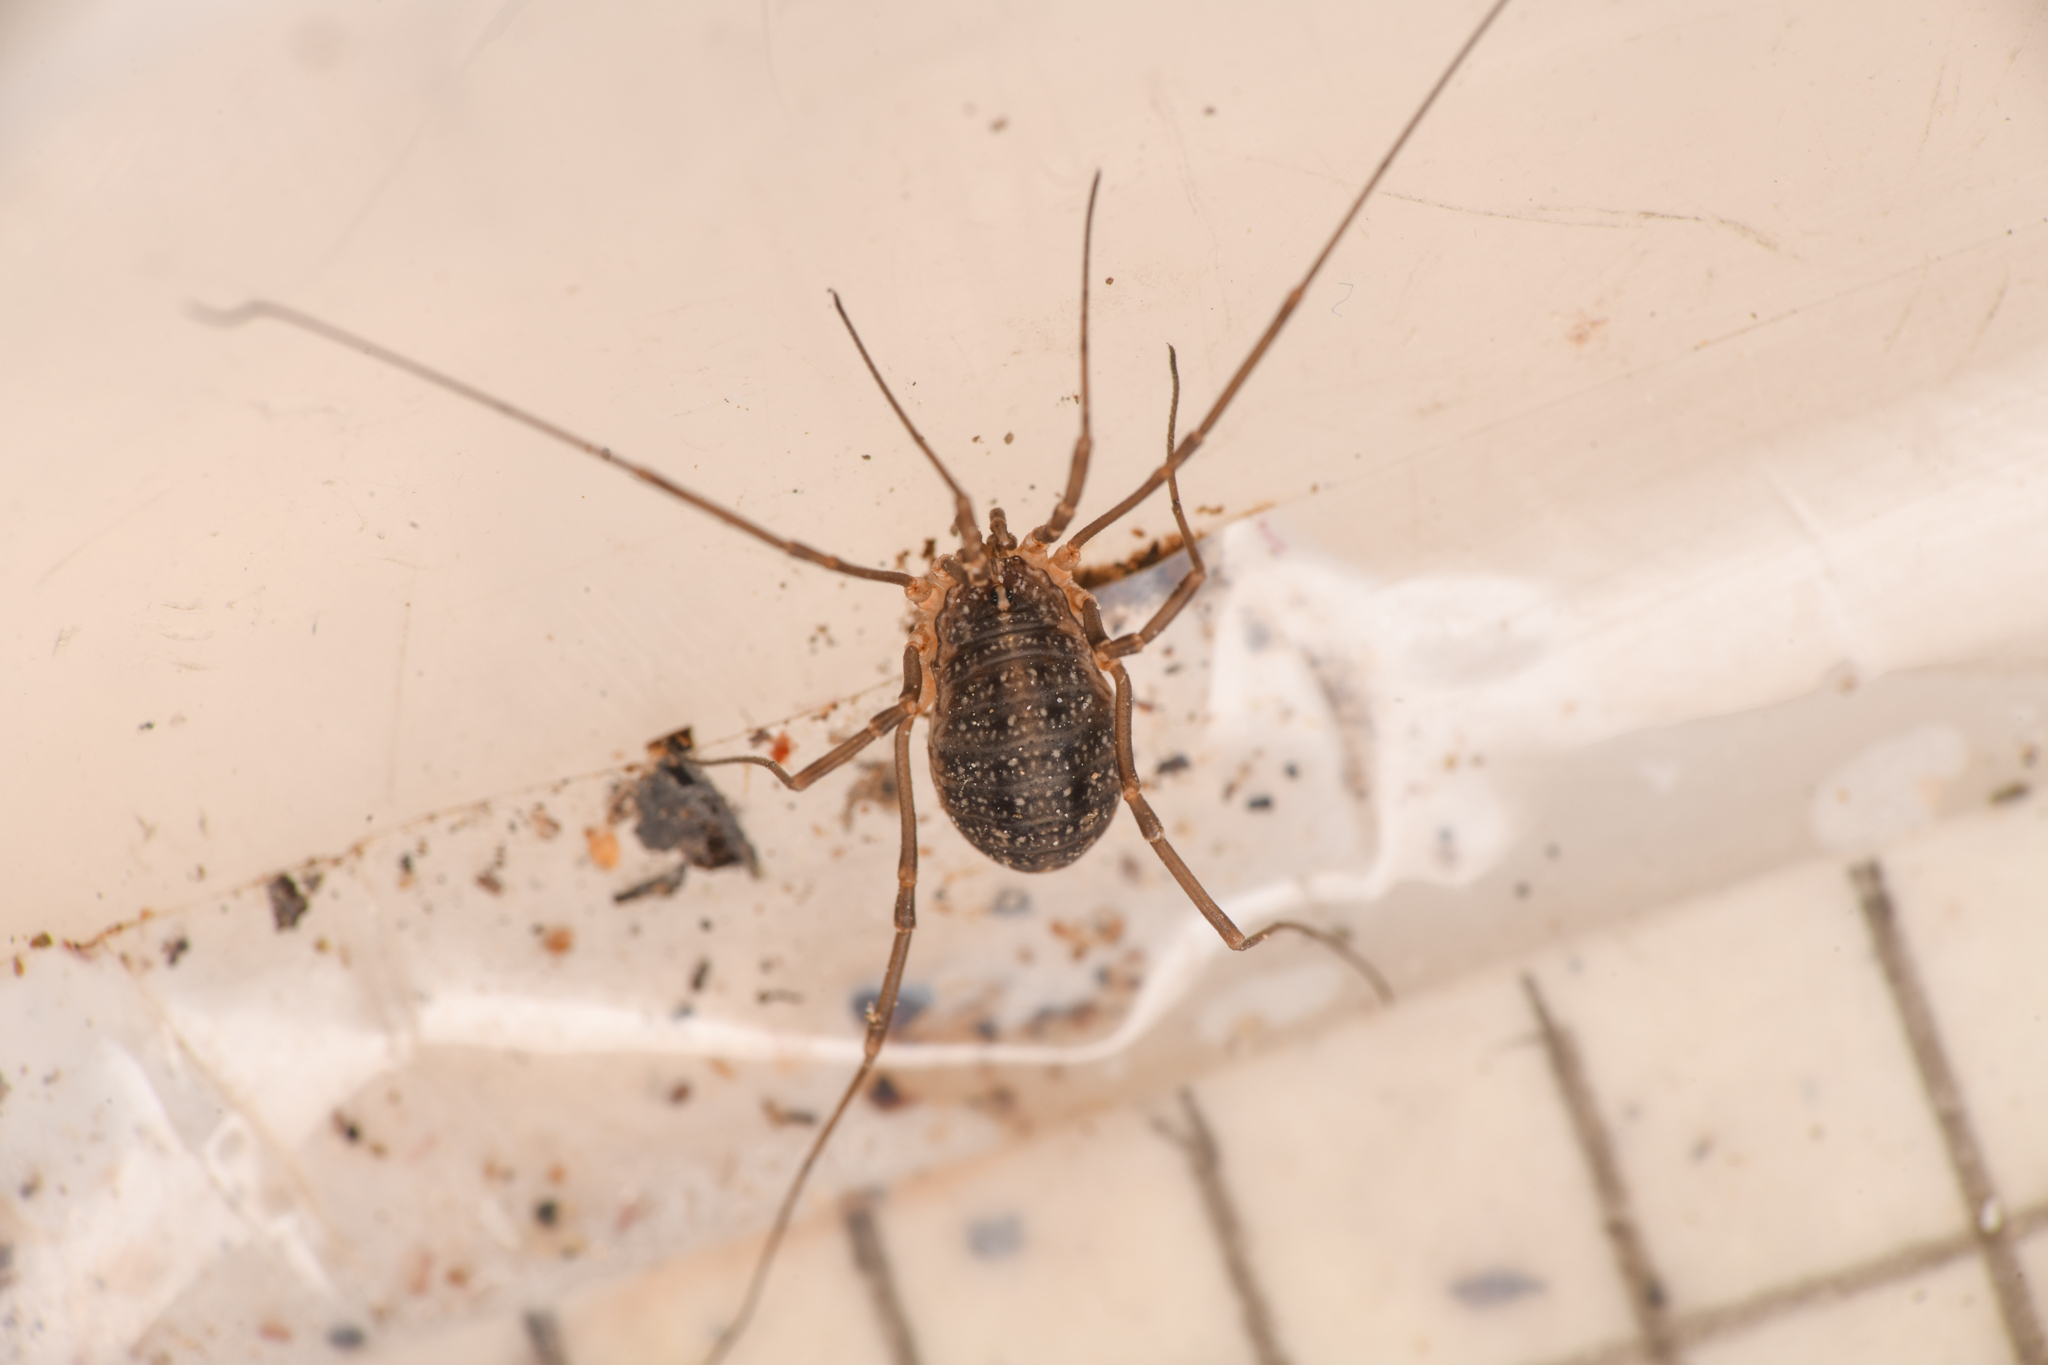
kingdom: Animalia
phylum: Arthropoda
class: Arachnida
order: Opiliones
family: Sclerosomatidae
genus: Togwoteeus
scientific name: Togwoteeus biceps
